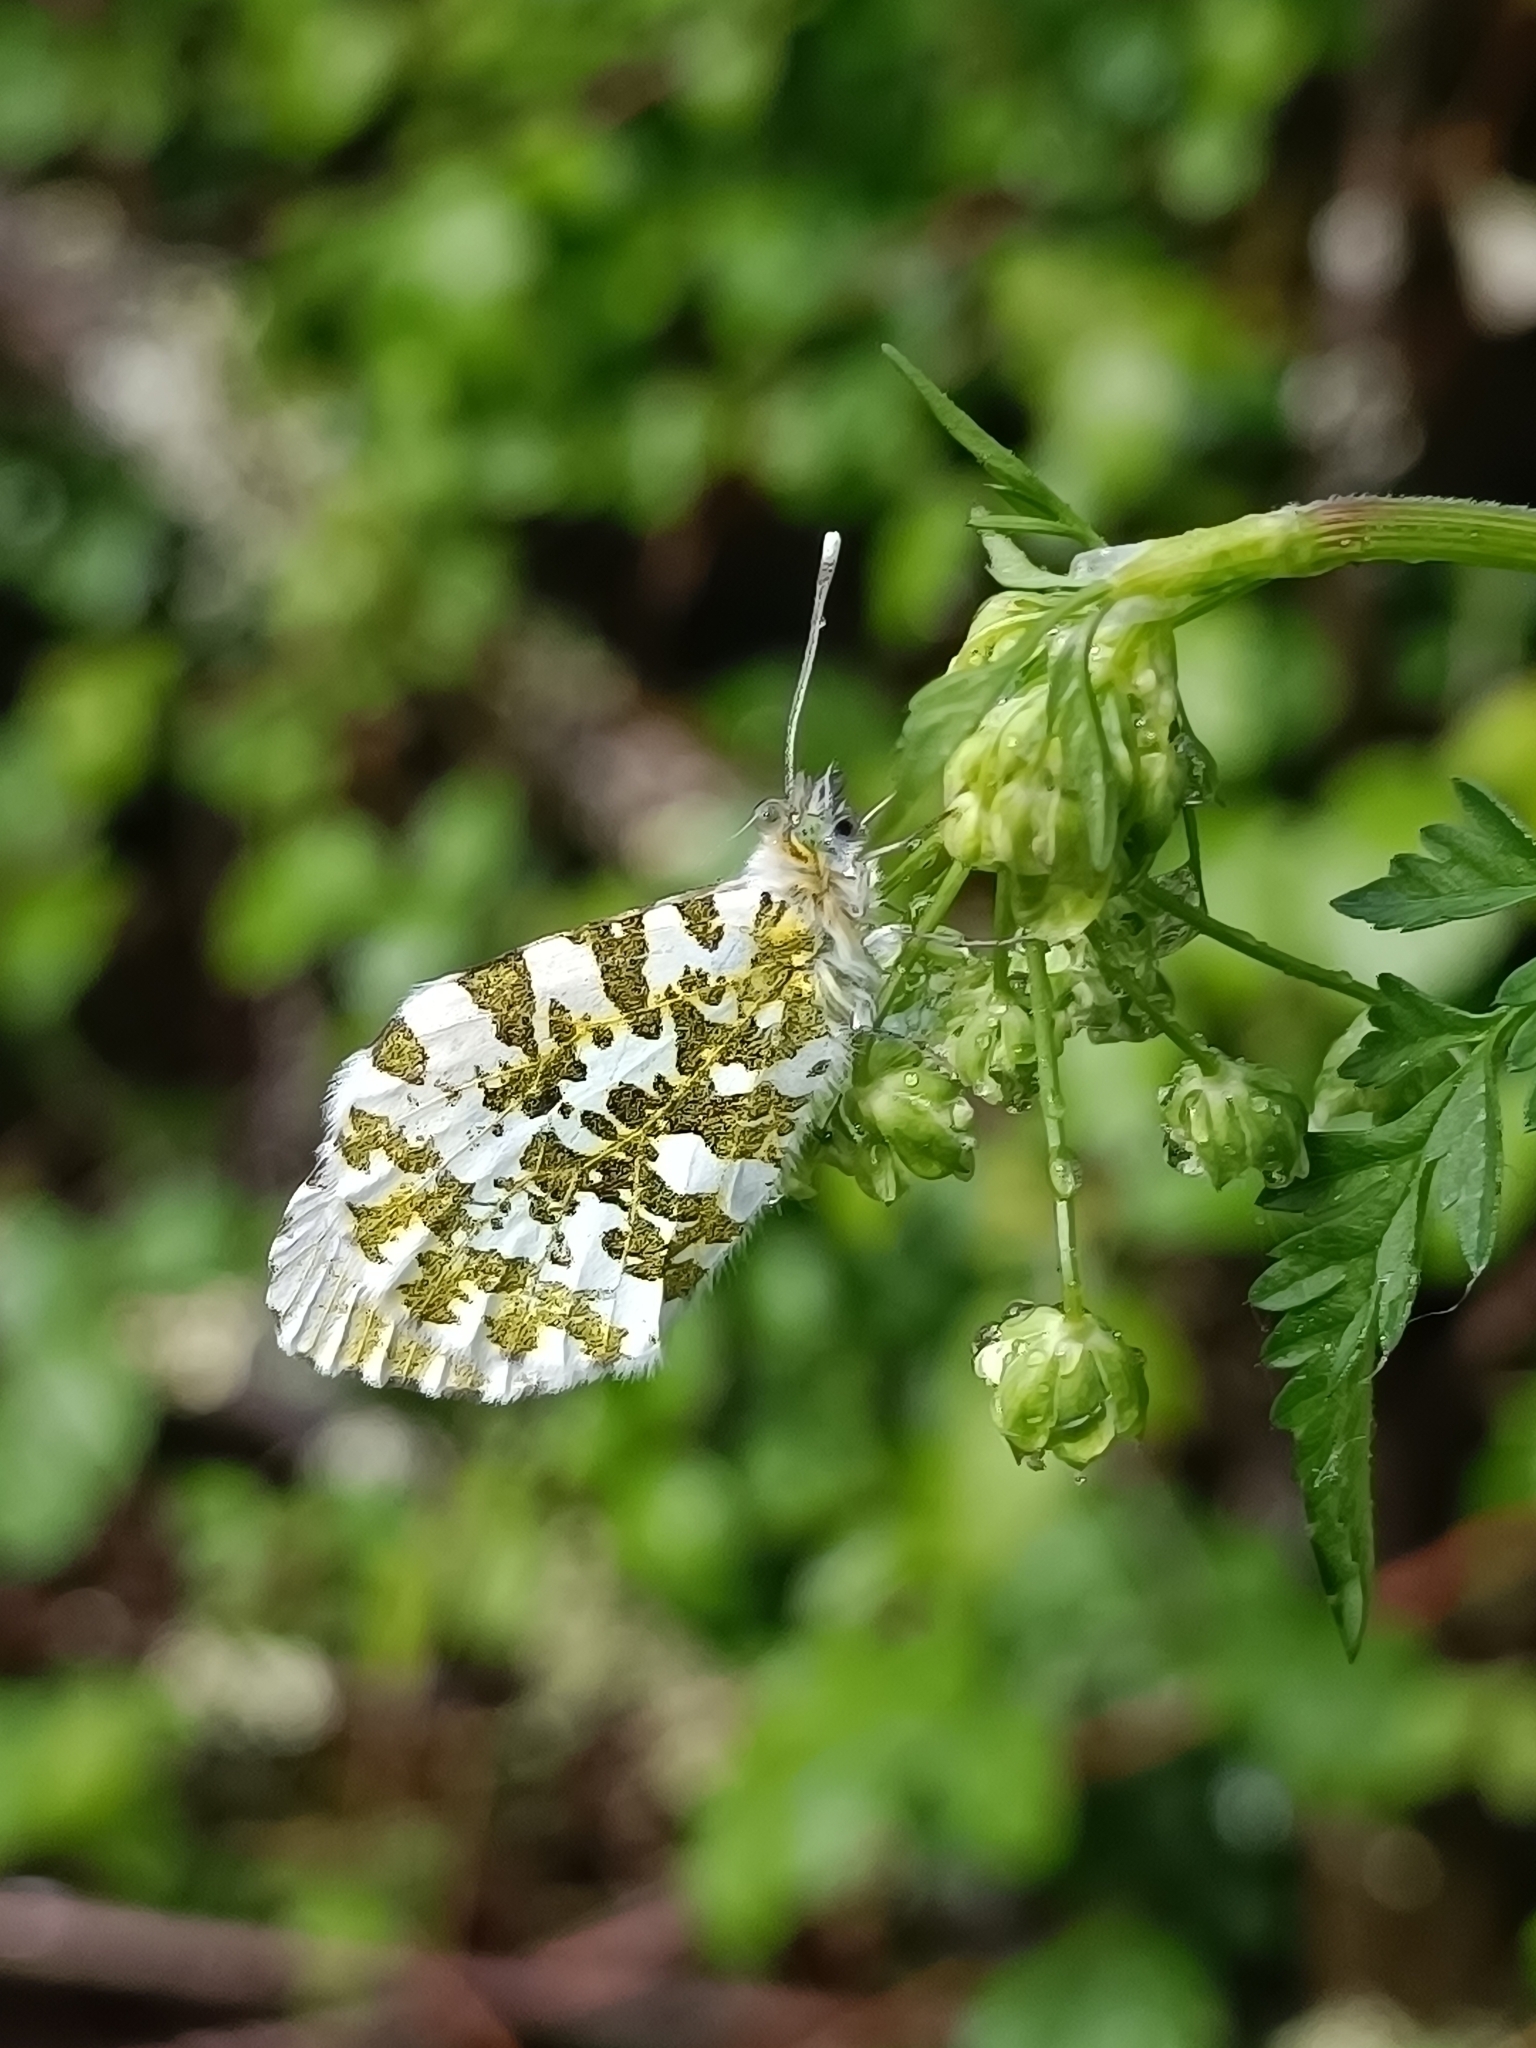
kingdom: Animalia
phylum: Arthropoda
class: Insecta
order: Lepidoptera
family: Pieridae
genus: Anthocharis
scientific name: Anthocharis cardamines
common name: Orange-tip
